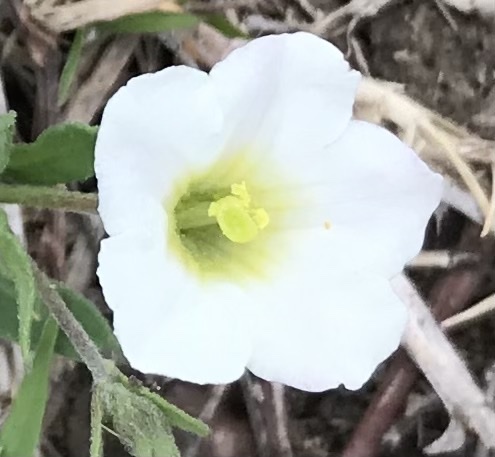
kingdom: Plantae
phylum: Tracheophyta
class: Magnoliopsida
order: Solanales
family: Solanaceae
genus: Salpiglossis
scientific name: Salpiglossis erecta
